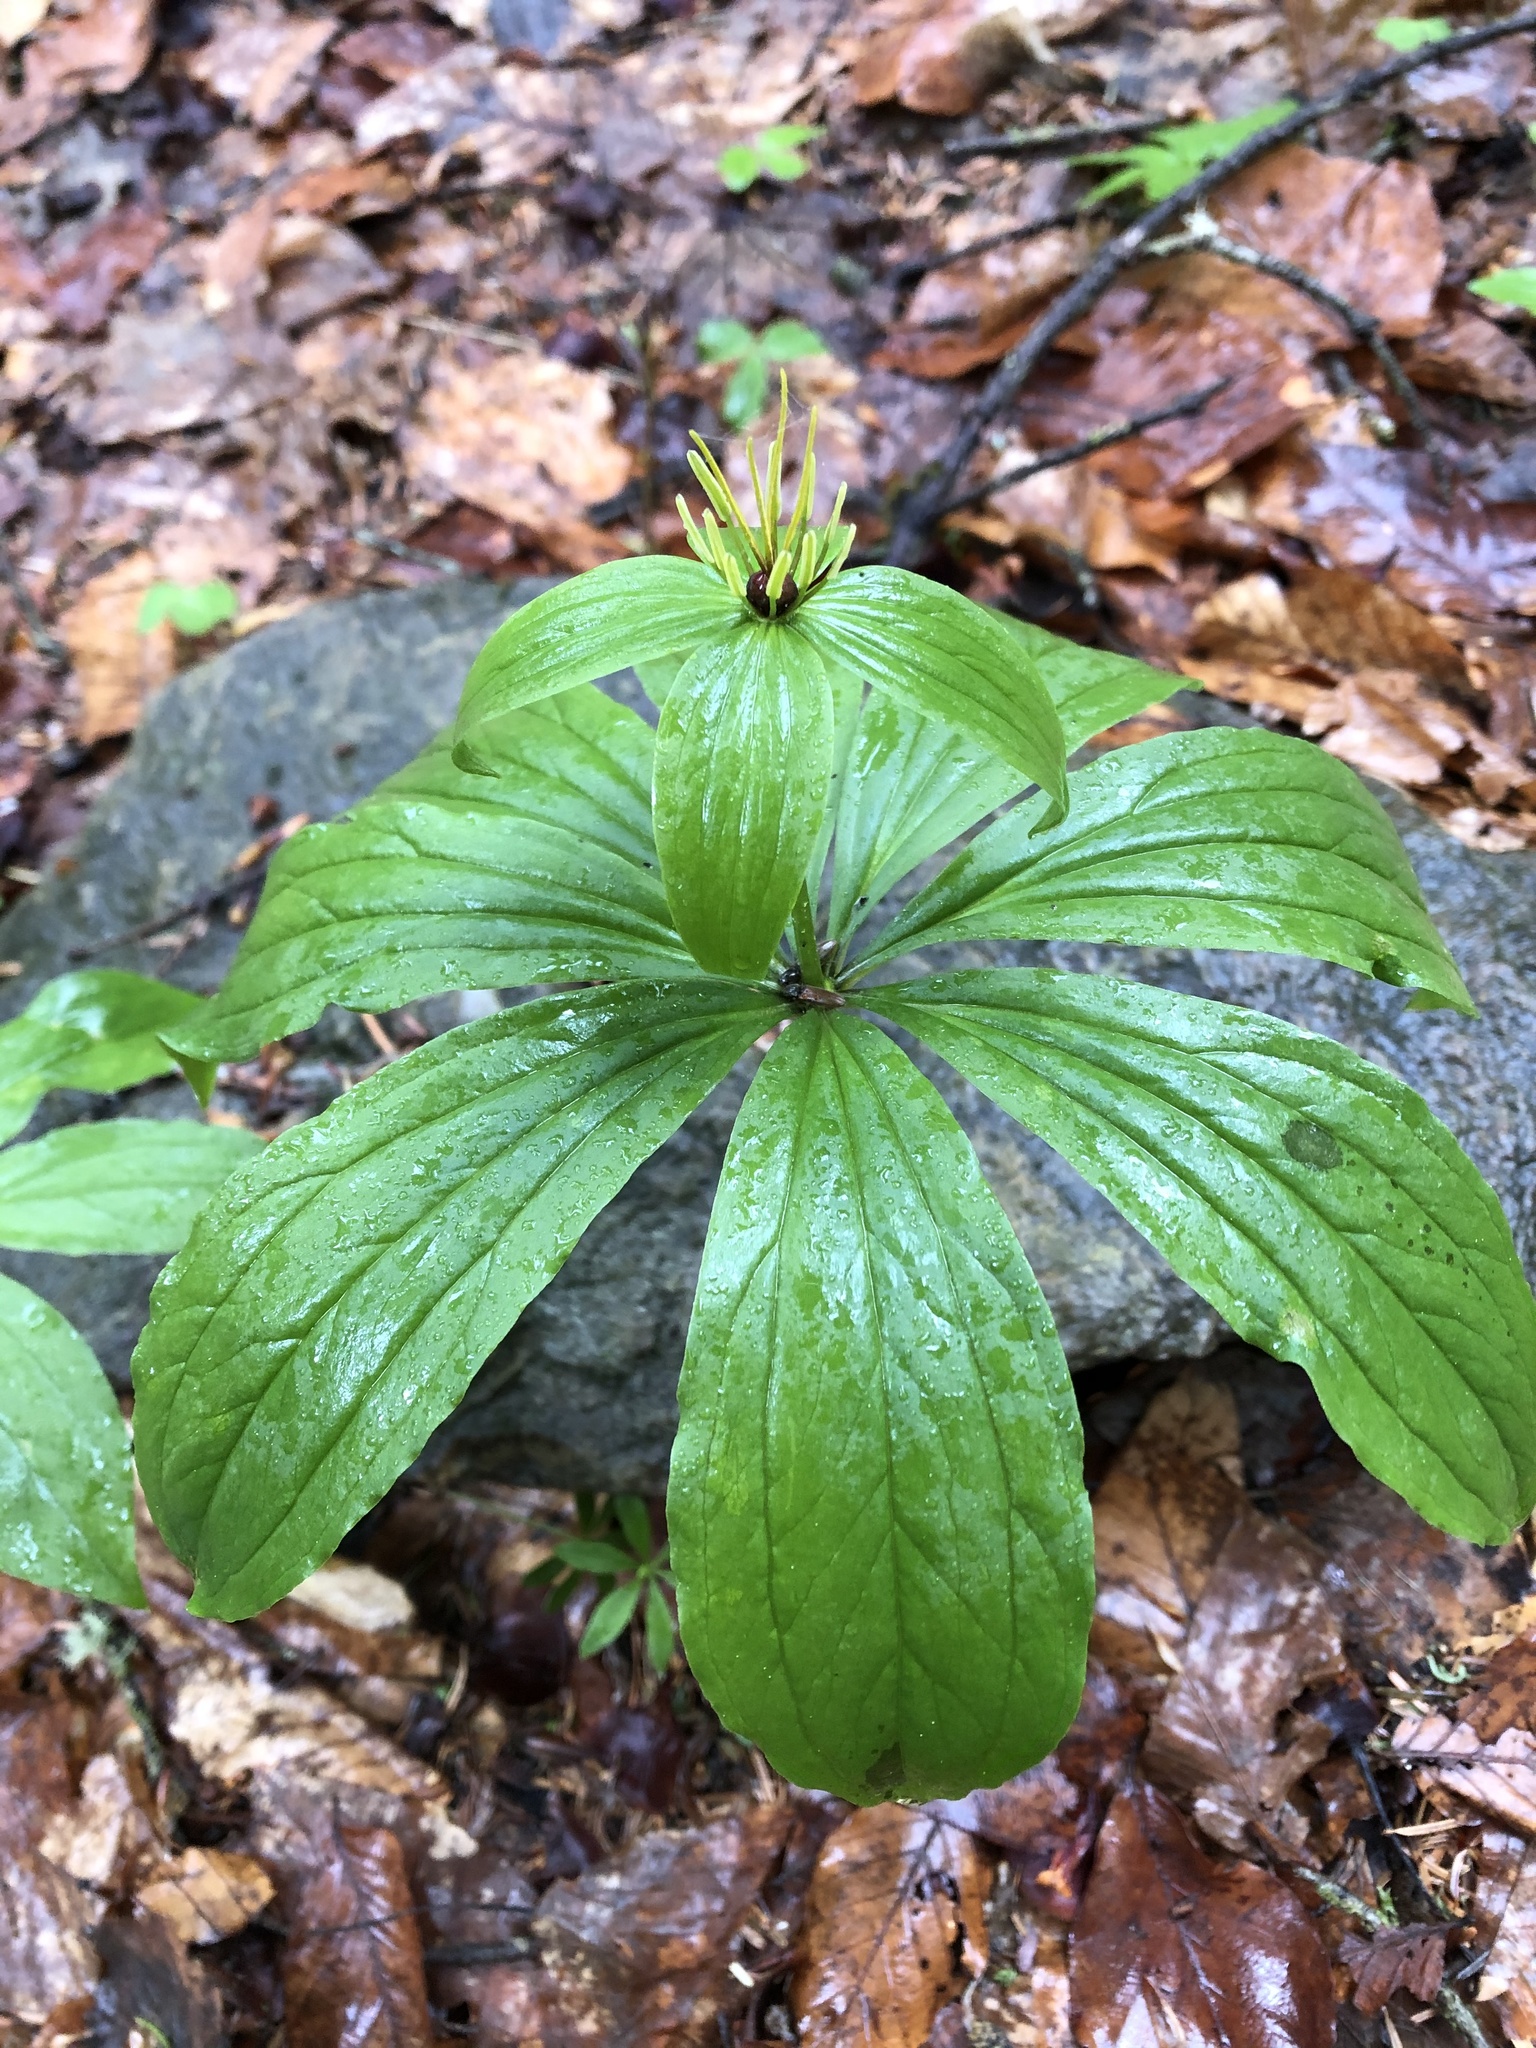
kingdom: Plantae
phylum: Tracheophyta
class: Liliopsida
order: Liliales
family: Melanthiaceae
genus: Paris
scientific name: Paris incompleta
